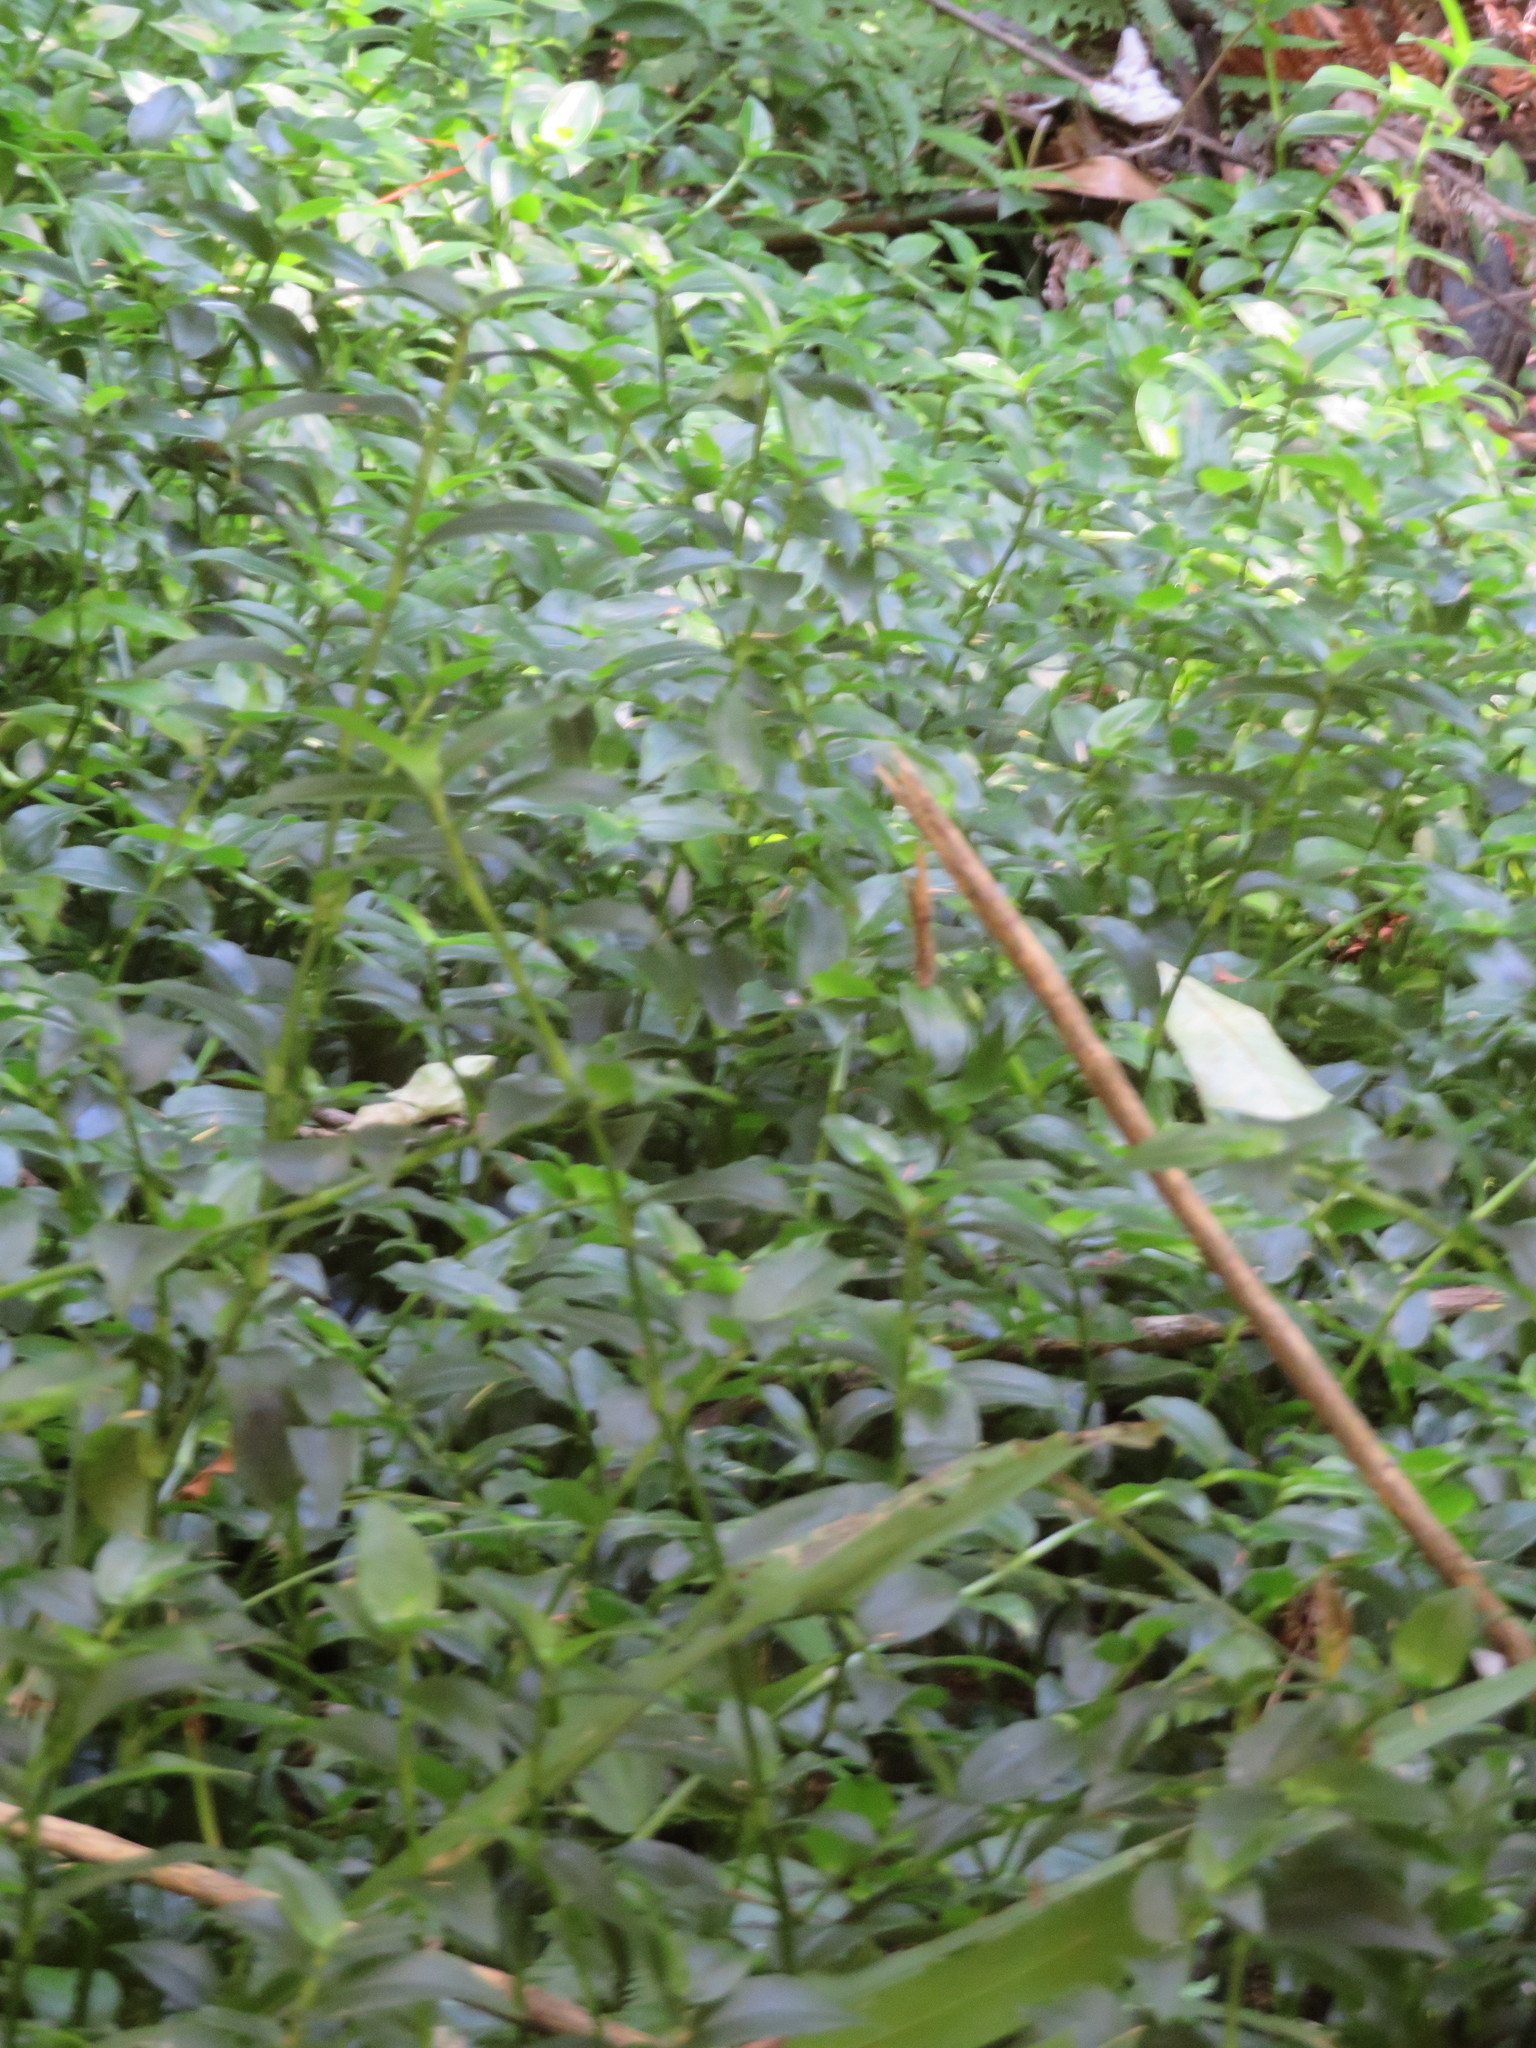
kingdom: Plantae
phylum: Tracheophyta
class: Liliopsida
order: Commelinales
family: Commelinaceae
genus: Tradescantia
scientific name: Tradescantia fluminensis
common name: Wandering-jew
